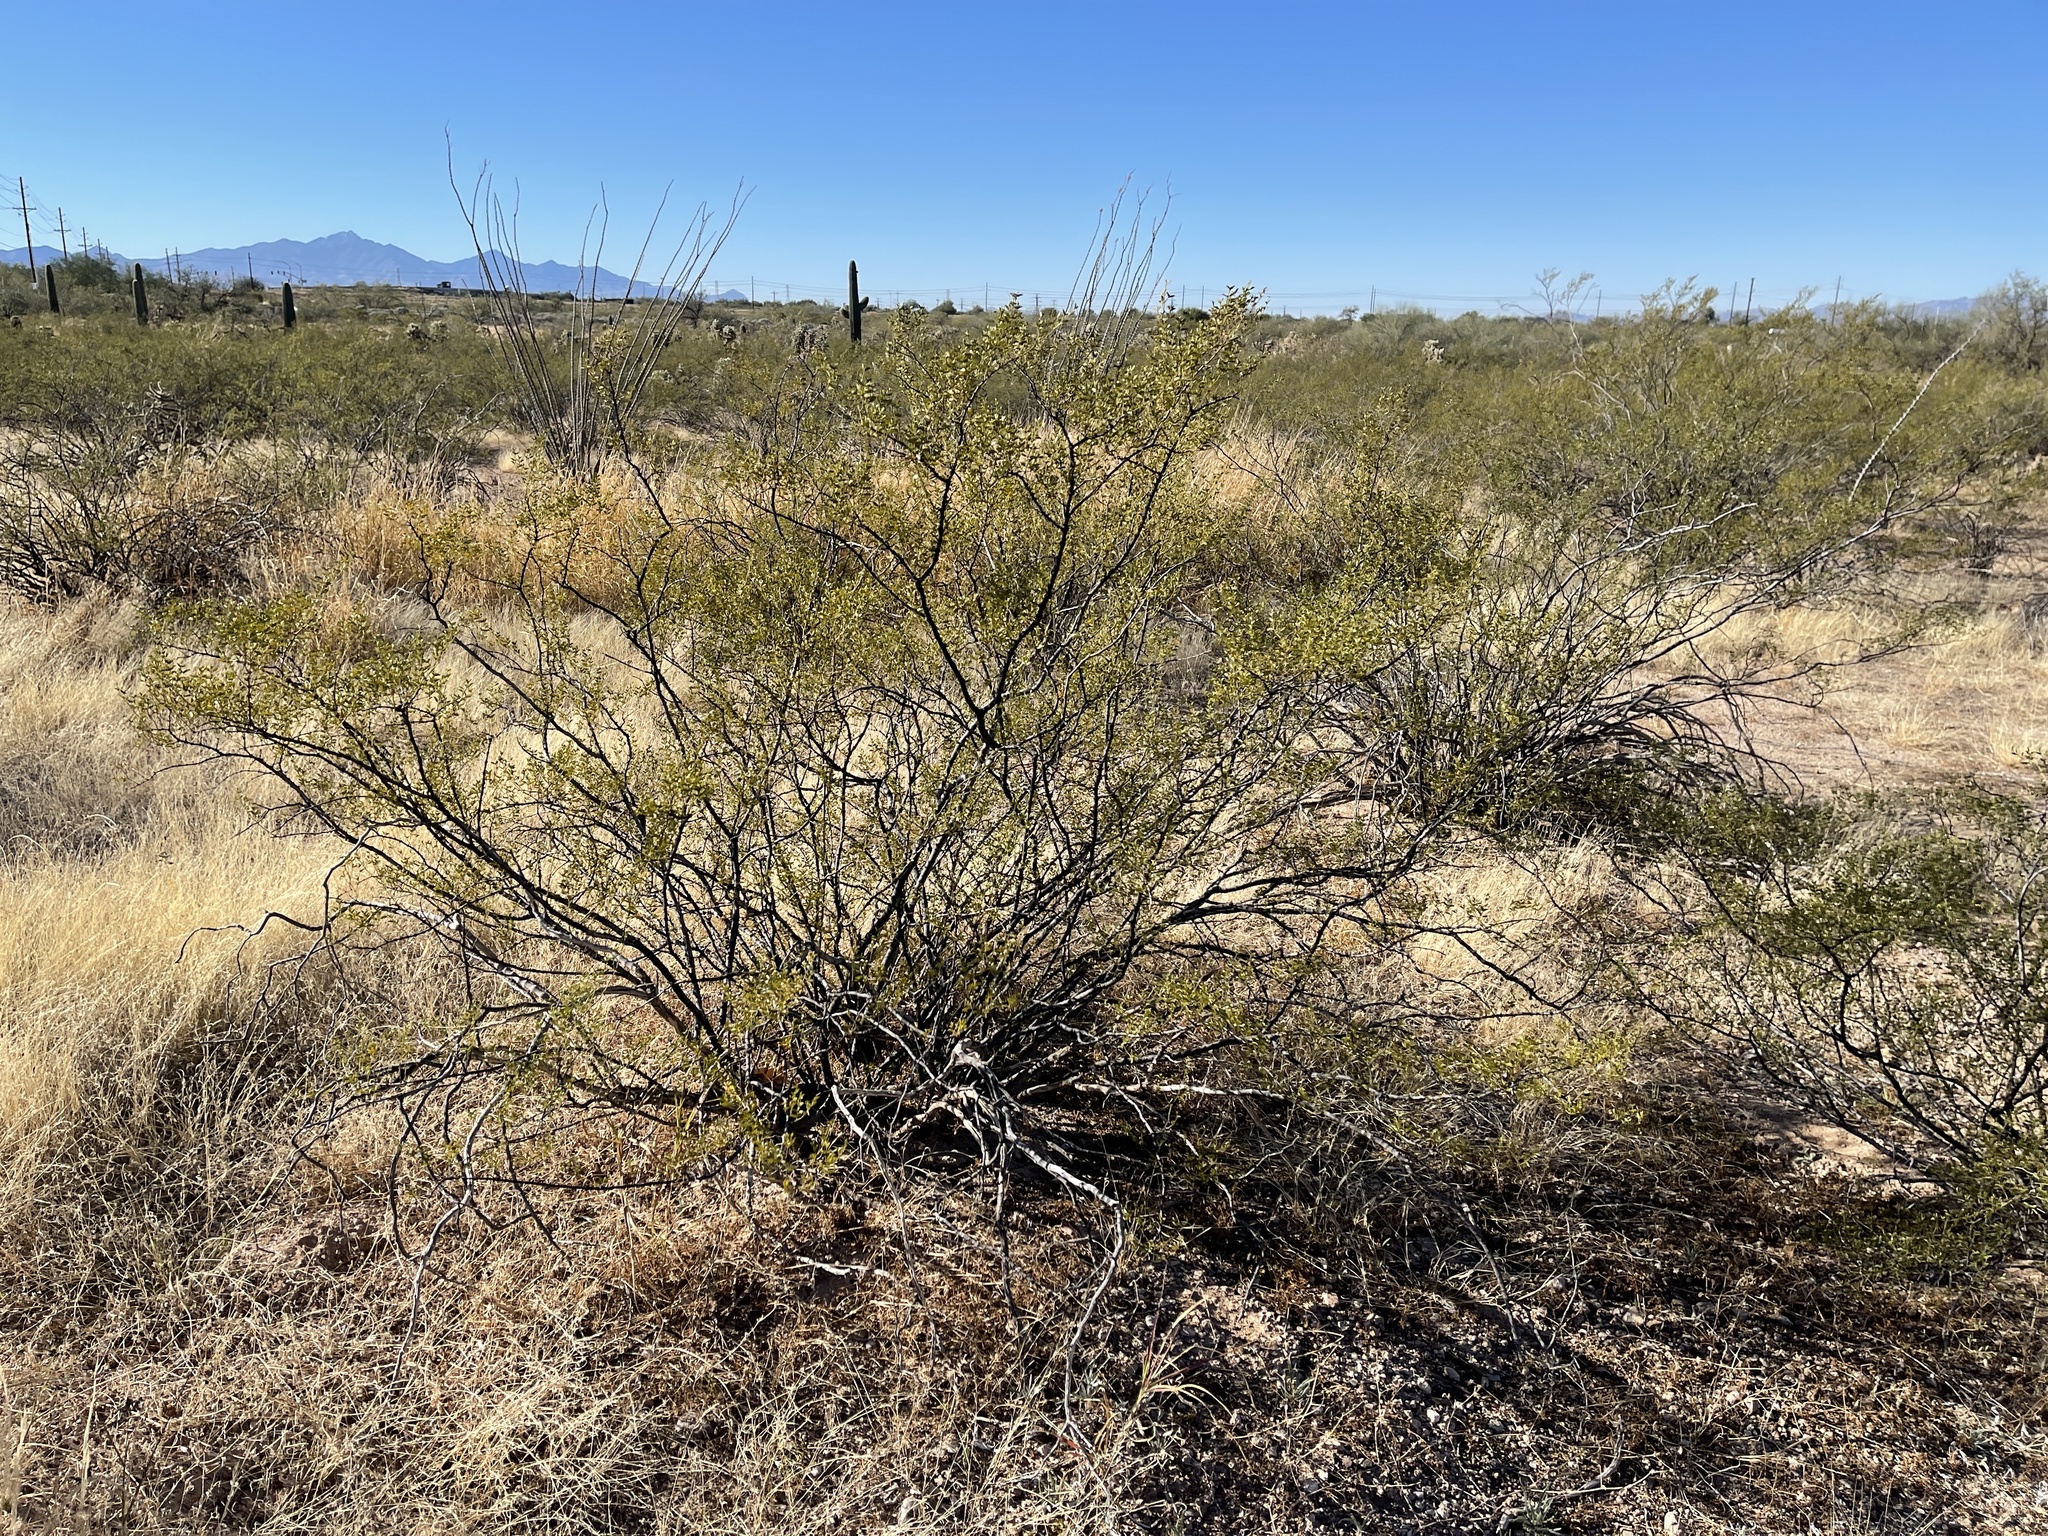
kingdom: Plantae
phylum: Tracheophyta
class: Magnoliopsida
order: Zygophyllales
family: Zygophyllaceae
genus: Larrea
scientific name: Larrea tridentata
